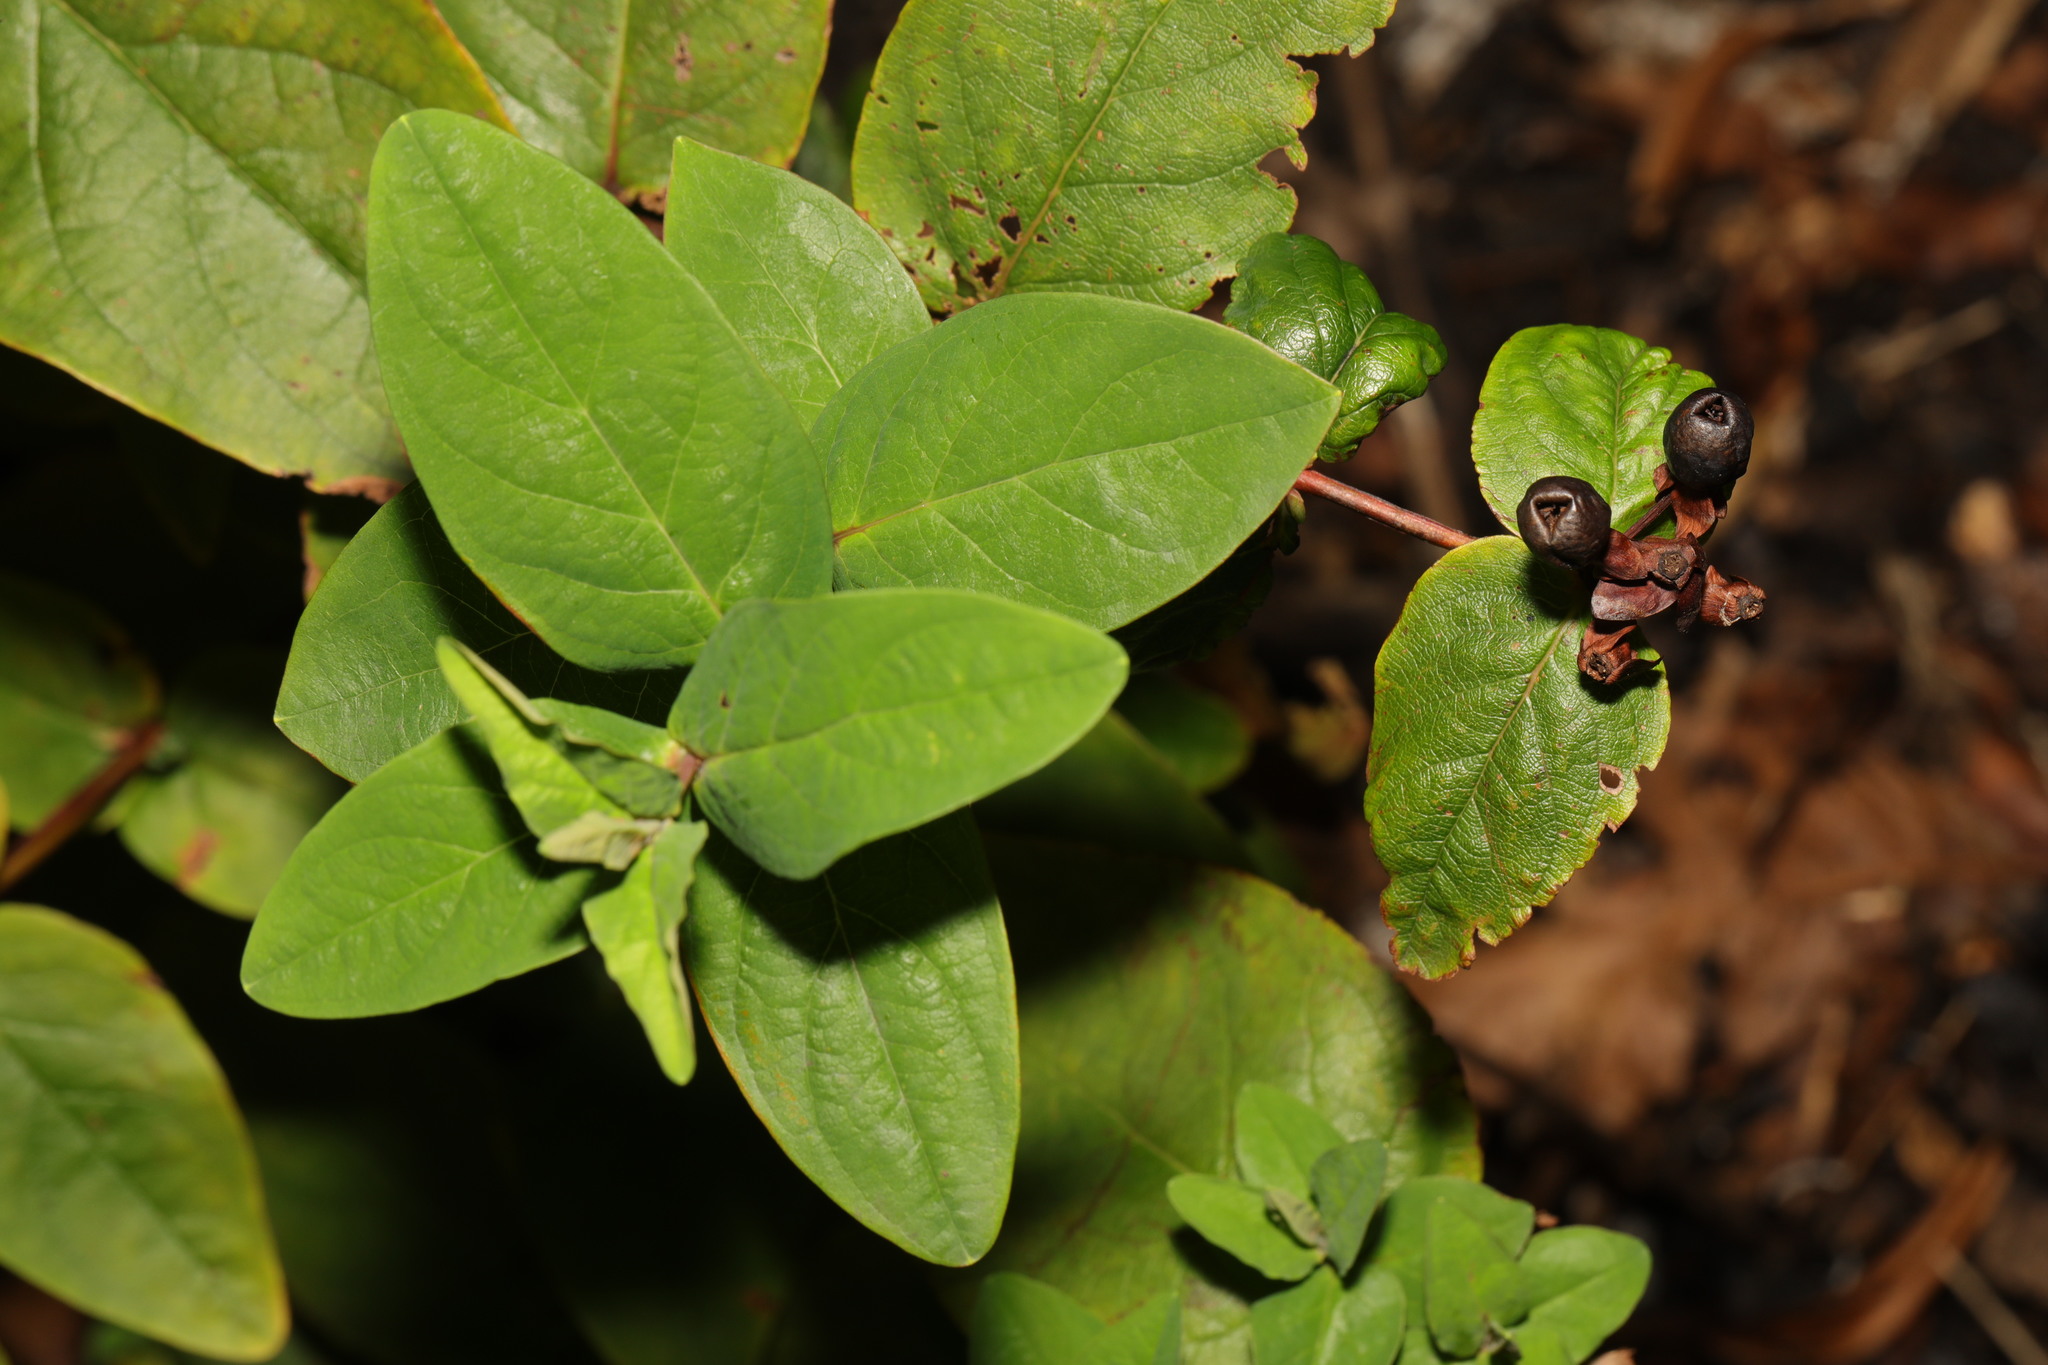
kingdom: Plantae
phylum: Tracheophyta
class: Magnoliopsida
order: Malpighiales
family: Hypericaceae
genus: Hypericum
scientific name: Hypericum androsaemum
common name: Sweet-amber
